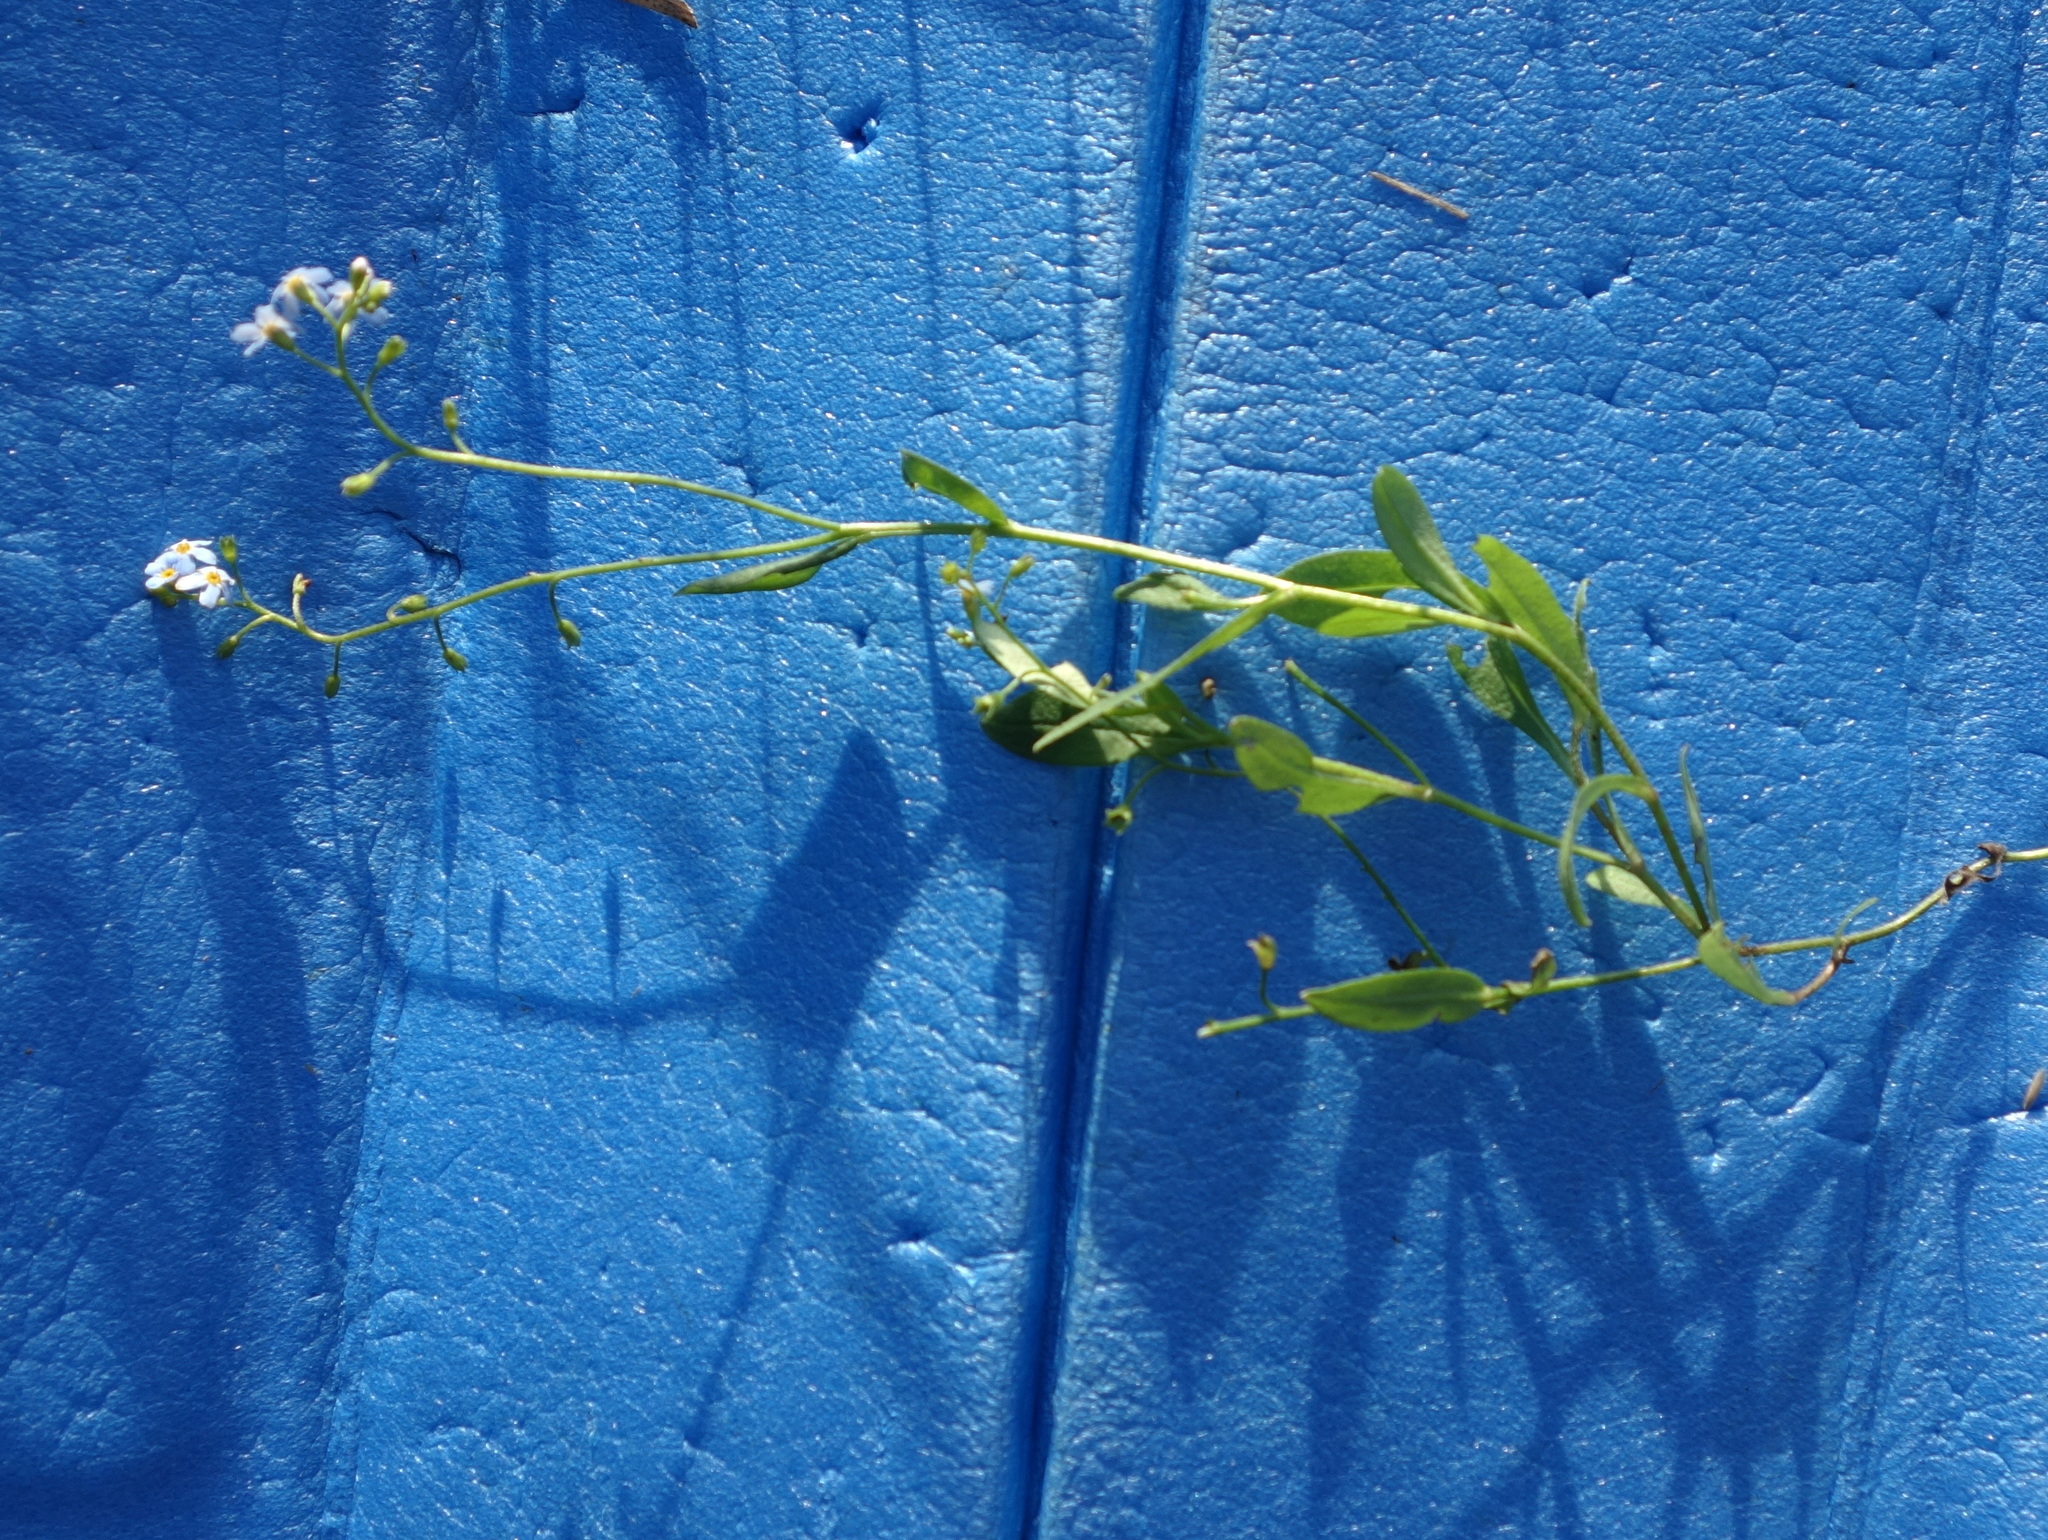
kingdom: Plantae
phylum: Tracheophyta
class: Magnoliopsida
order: Boraginales
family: Boraginaceae
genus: Myosotis
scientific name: Myosotis scorpioides
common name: Water forget-me-not
